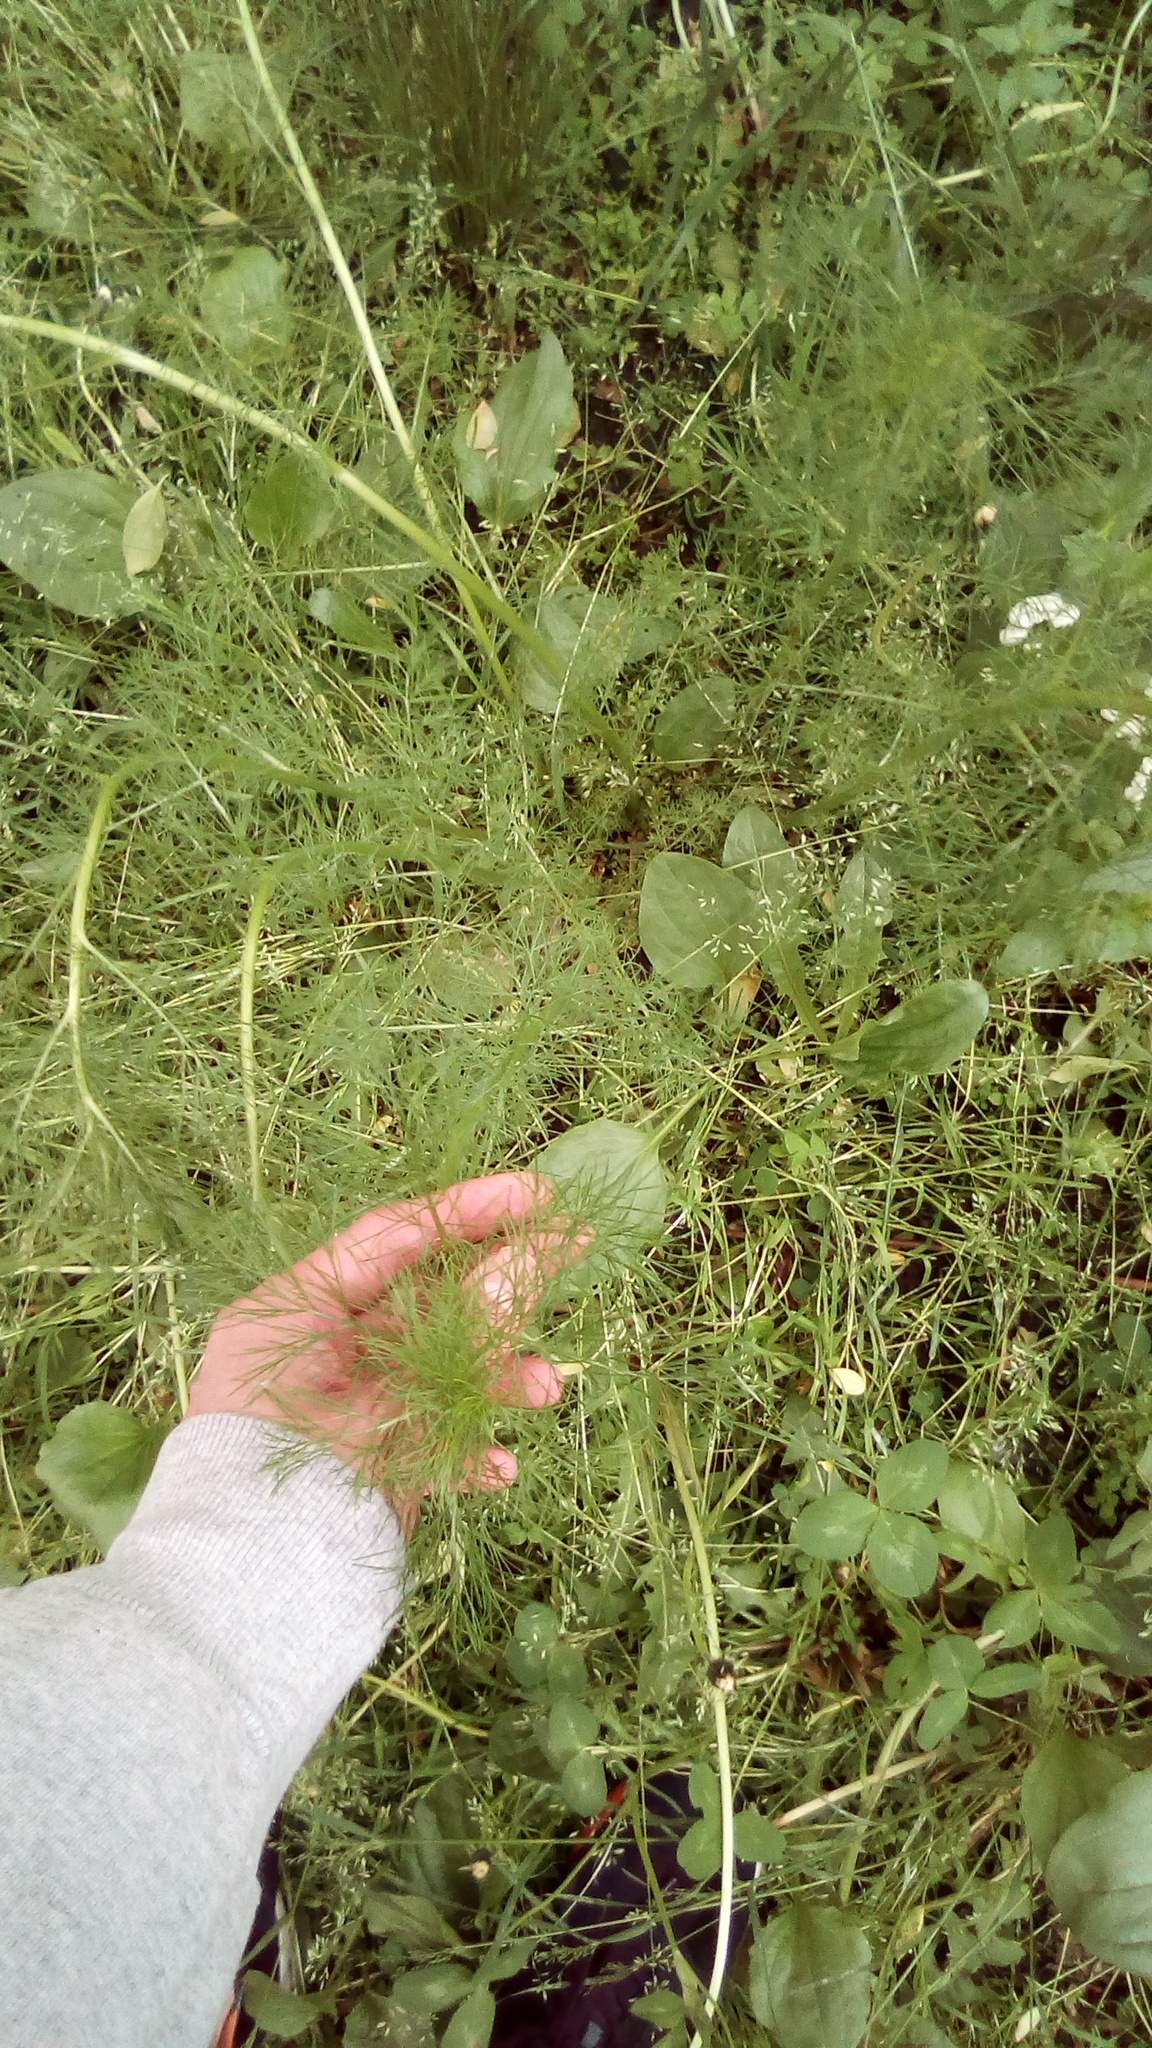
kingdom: Plantae
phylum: Tracheophyta
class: Magnoliopsida
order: Asterales
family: Asteraceae
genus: Tripleurospermum
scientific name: Tripleurospermum inodorum
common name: Scentless mayweed
